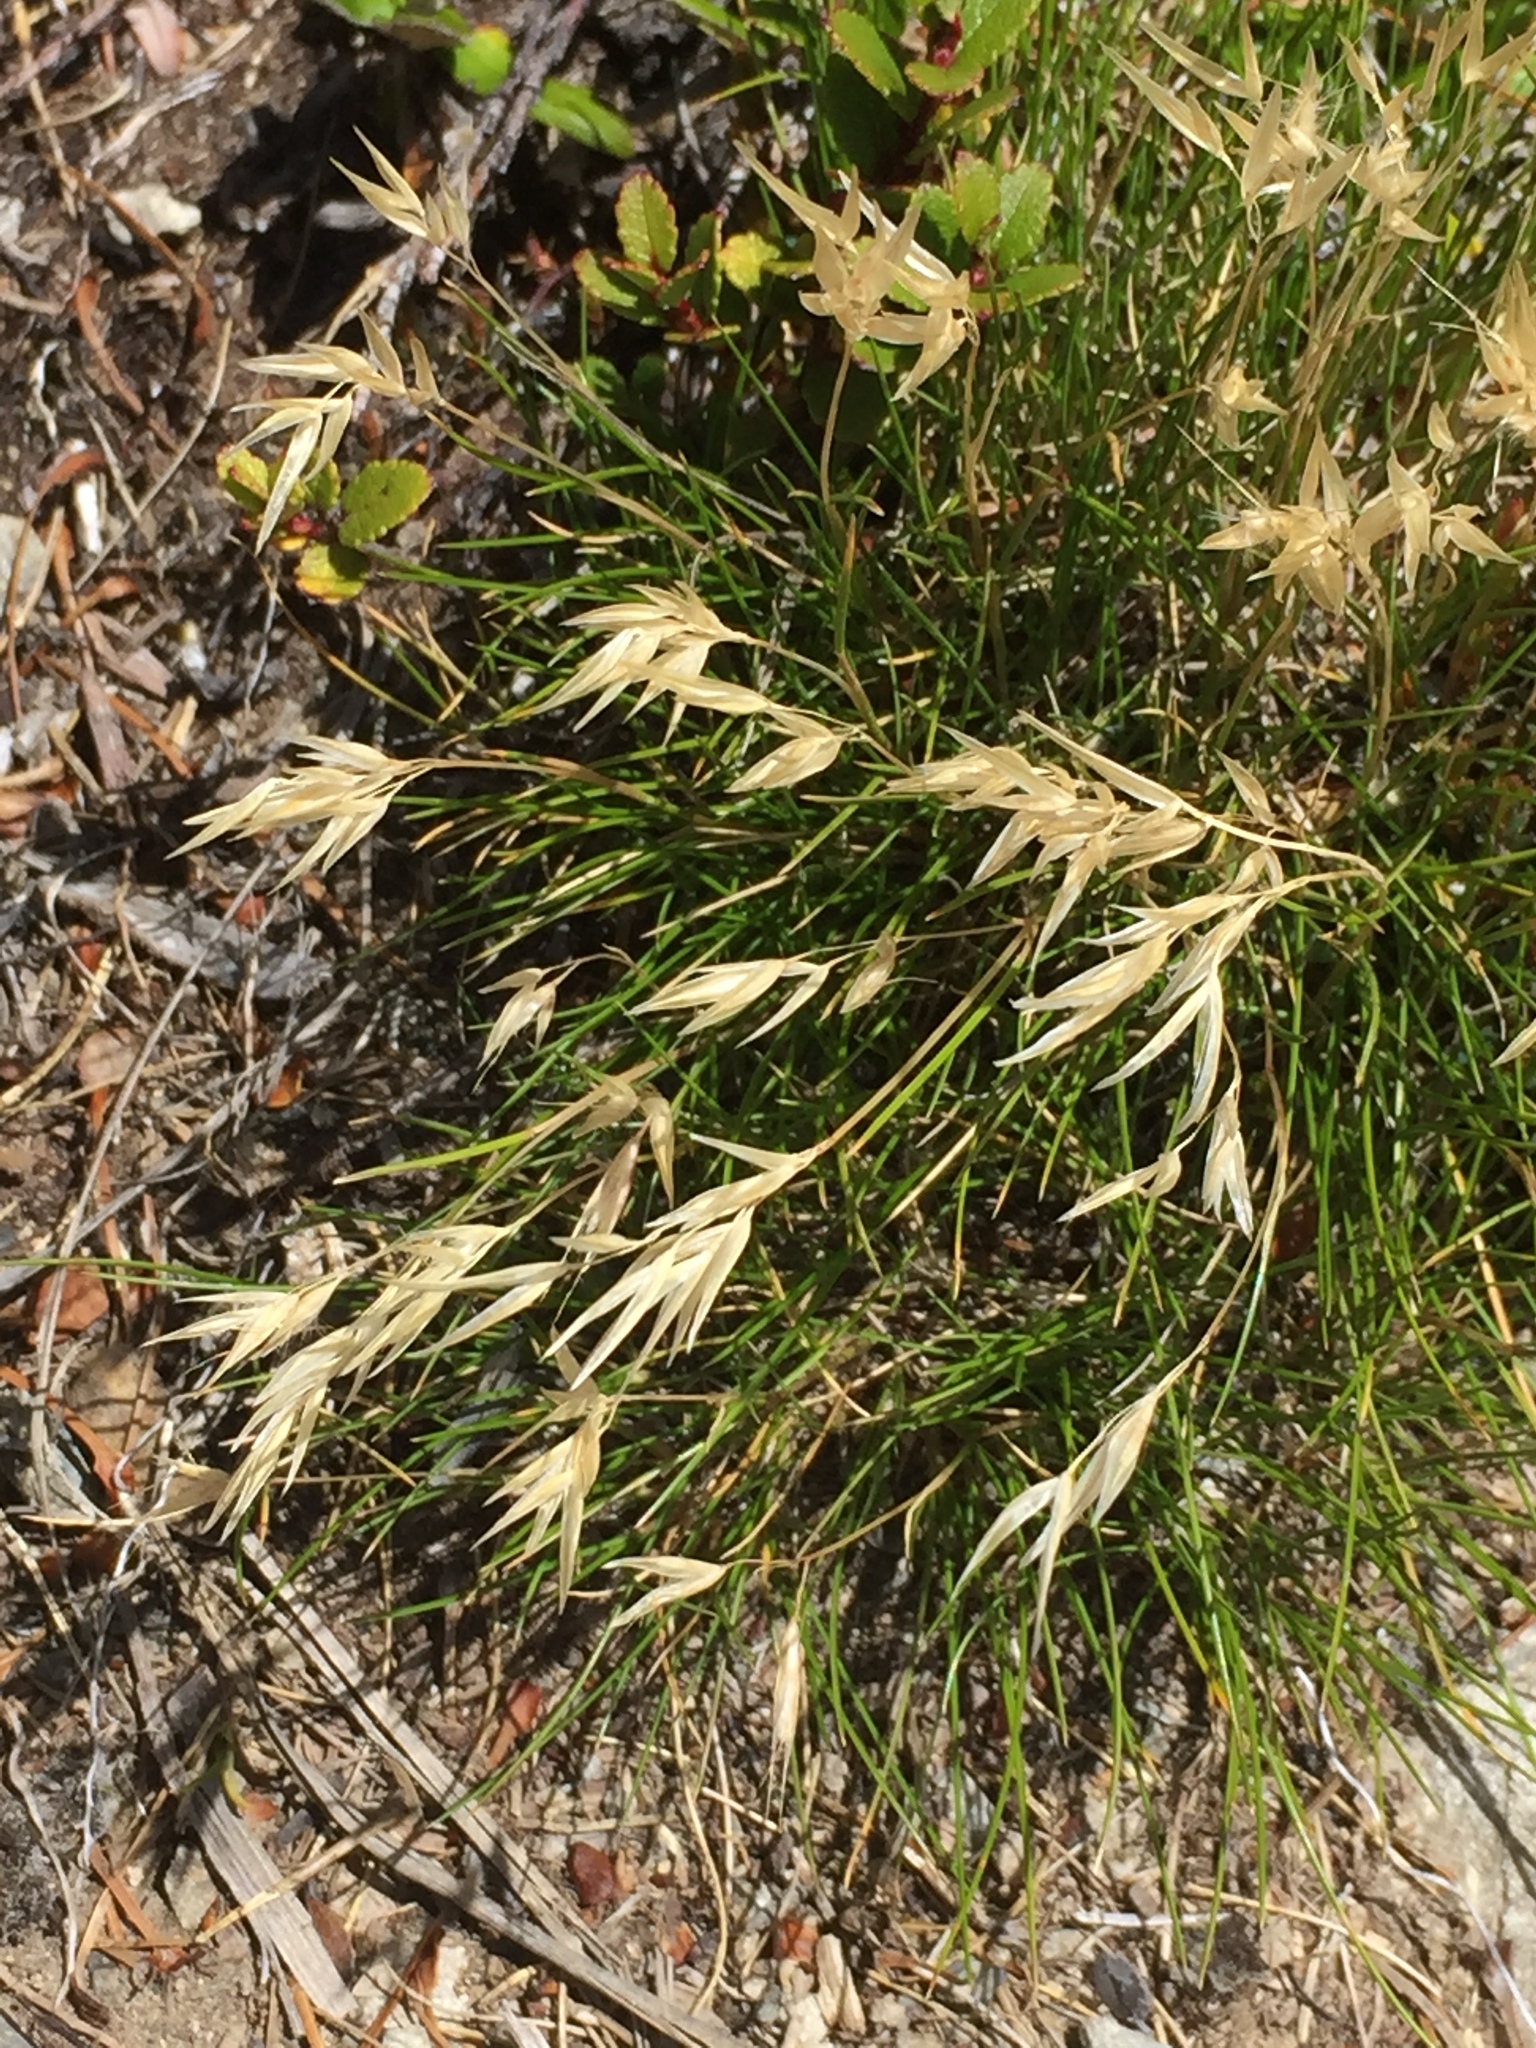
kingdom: Plantae
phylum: Tracheophyta
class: Liliopsida
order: Poales
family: Poaceae
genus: Rytidosperma
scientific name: Rytidosperma setifolium
